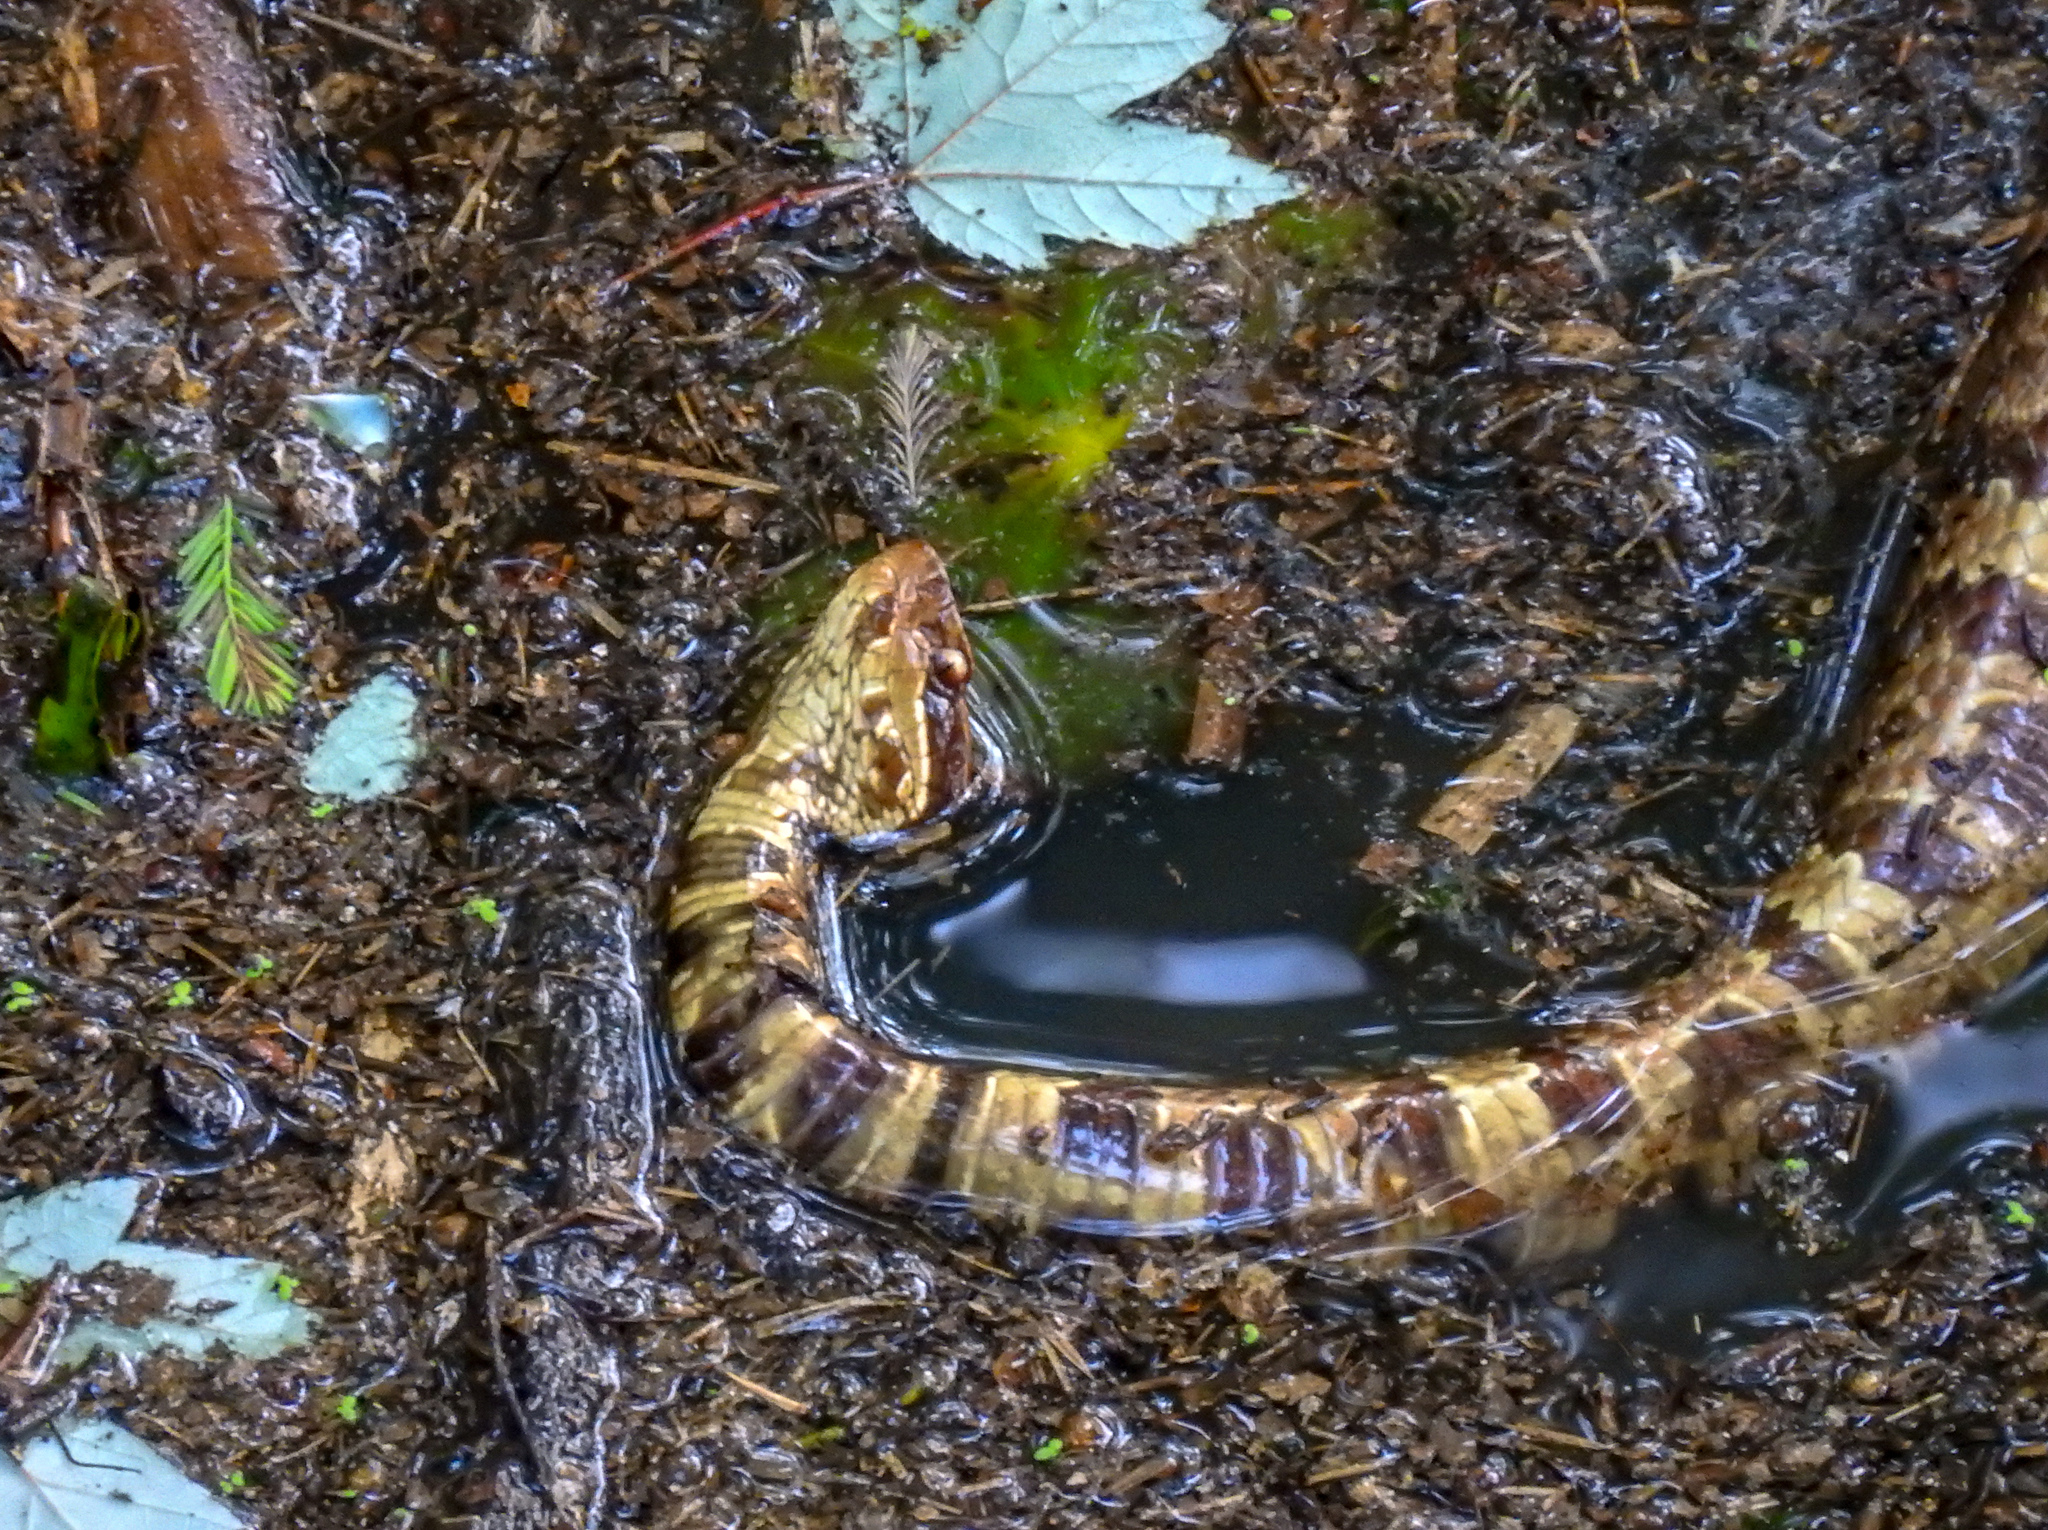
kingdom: Animalia
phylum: Chordata
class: Squamata
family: Viperidae
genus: Agkistrodon
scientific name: Agkistrodon piscivorus
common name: Cottonmouth
